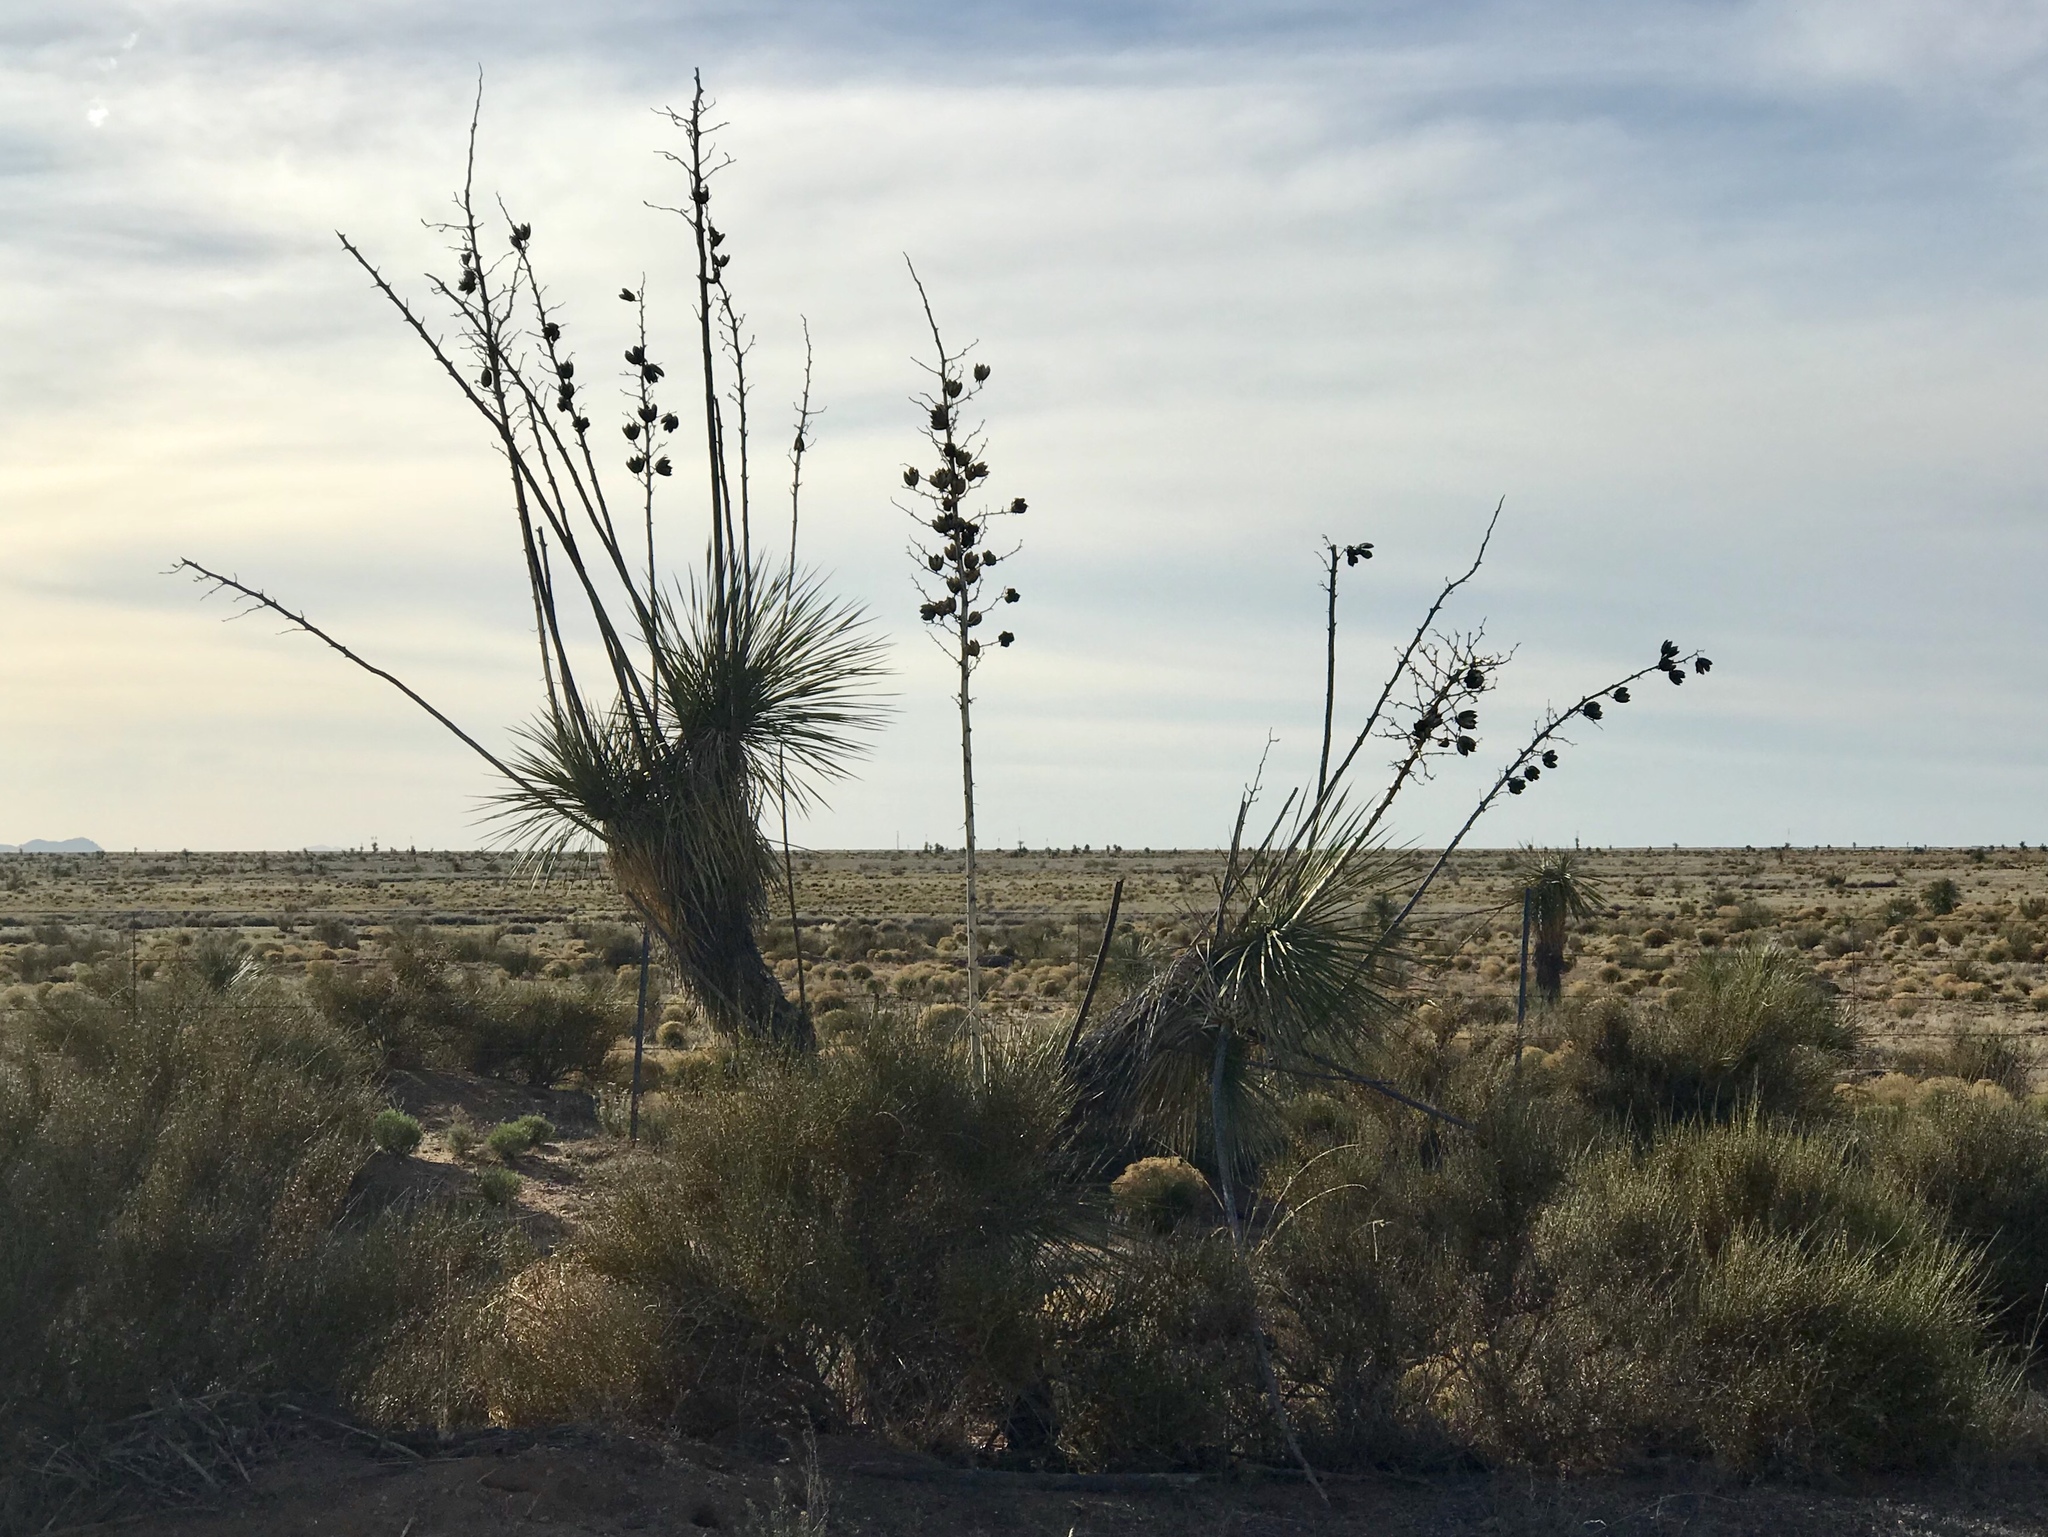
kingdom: Plantae
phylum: Tracheophyta
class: Liliopsida
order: Asparagales
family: Asparagaceae
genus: Yucca
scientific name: Yucca elata
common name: Palmella
